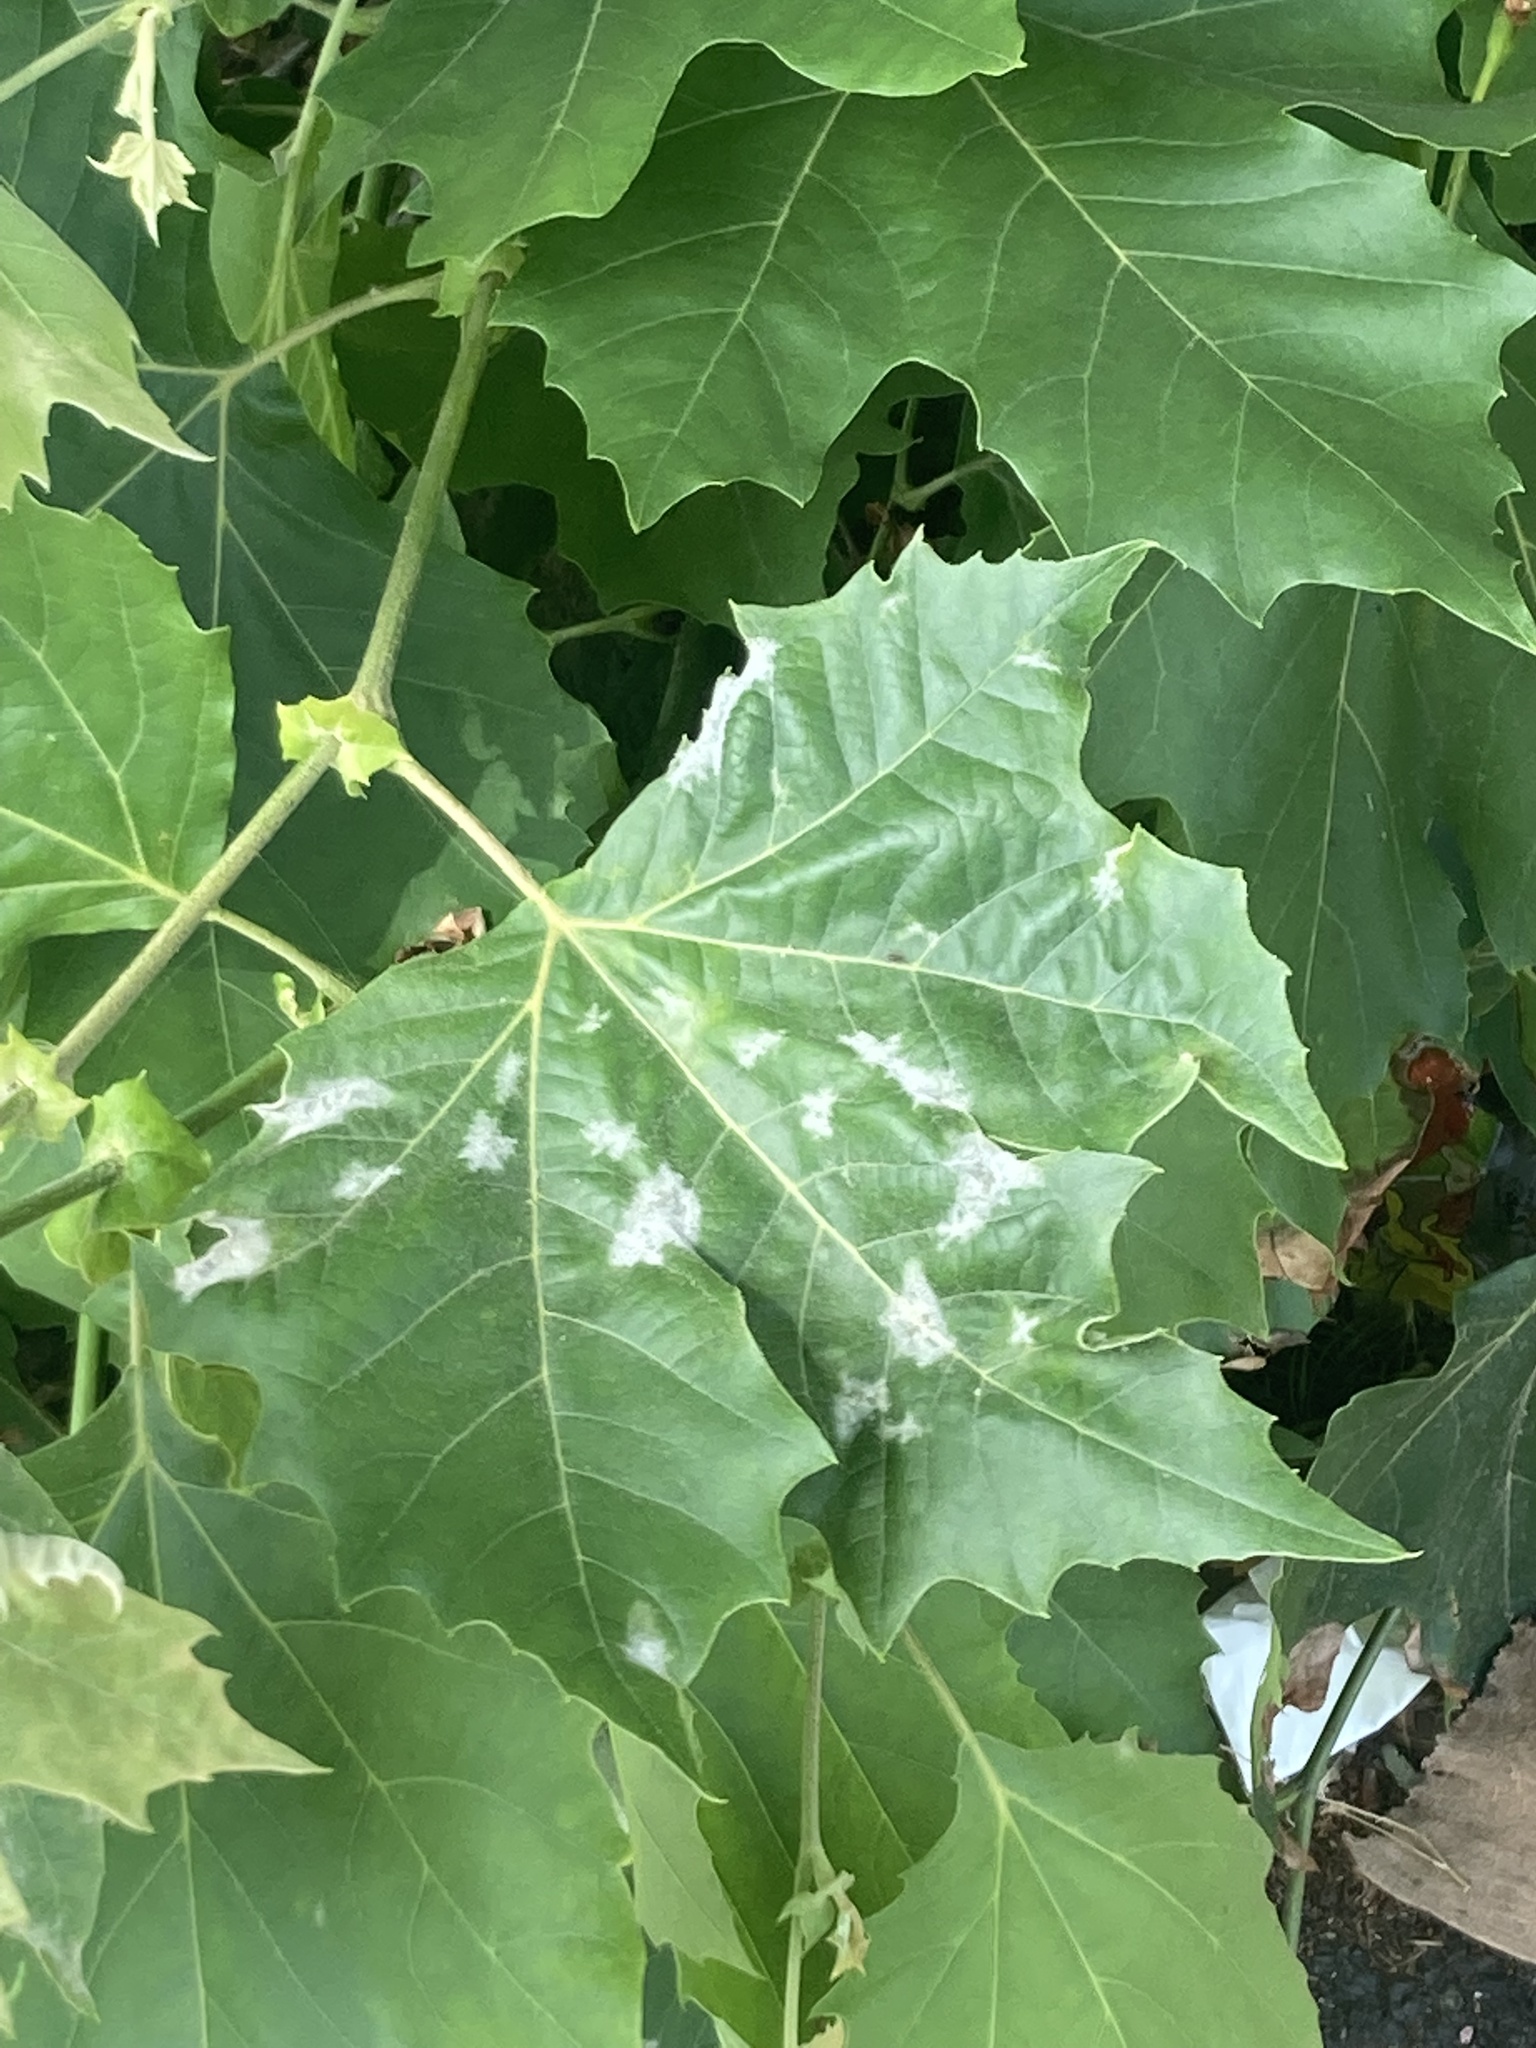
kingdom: Fungi
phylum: Ascomycota
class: Leotiomycetes
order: Helotiales
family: Erysiphaceae
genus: Erysiphe
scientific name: Erysiphe platani
